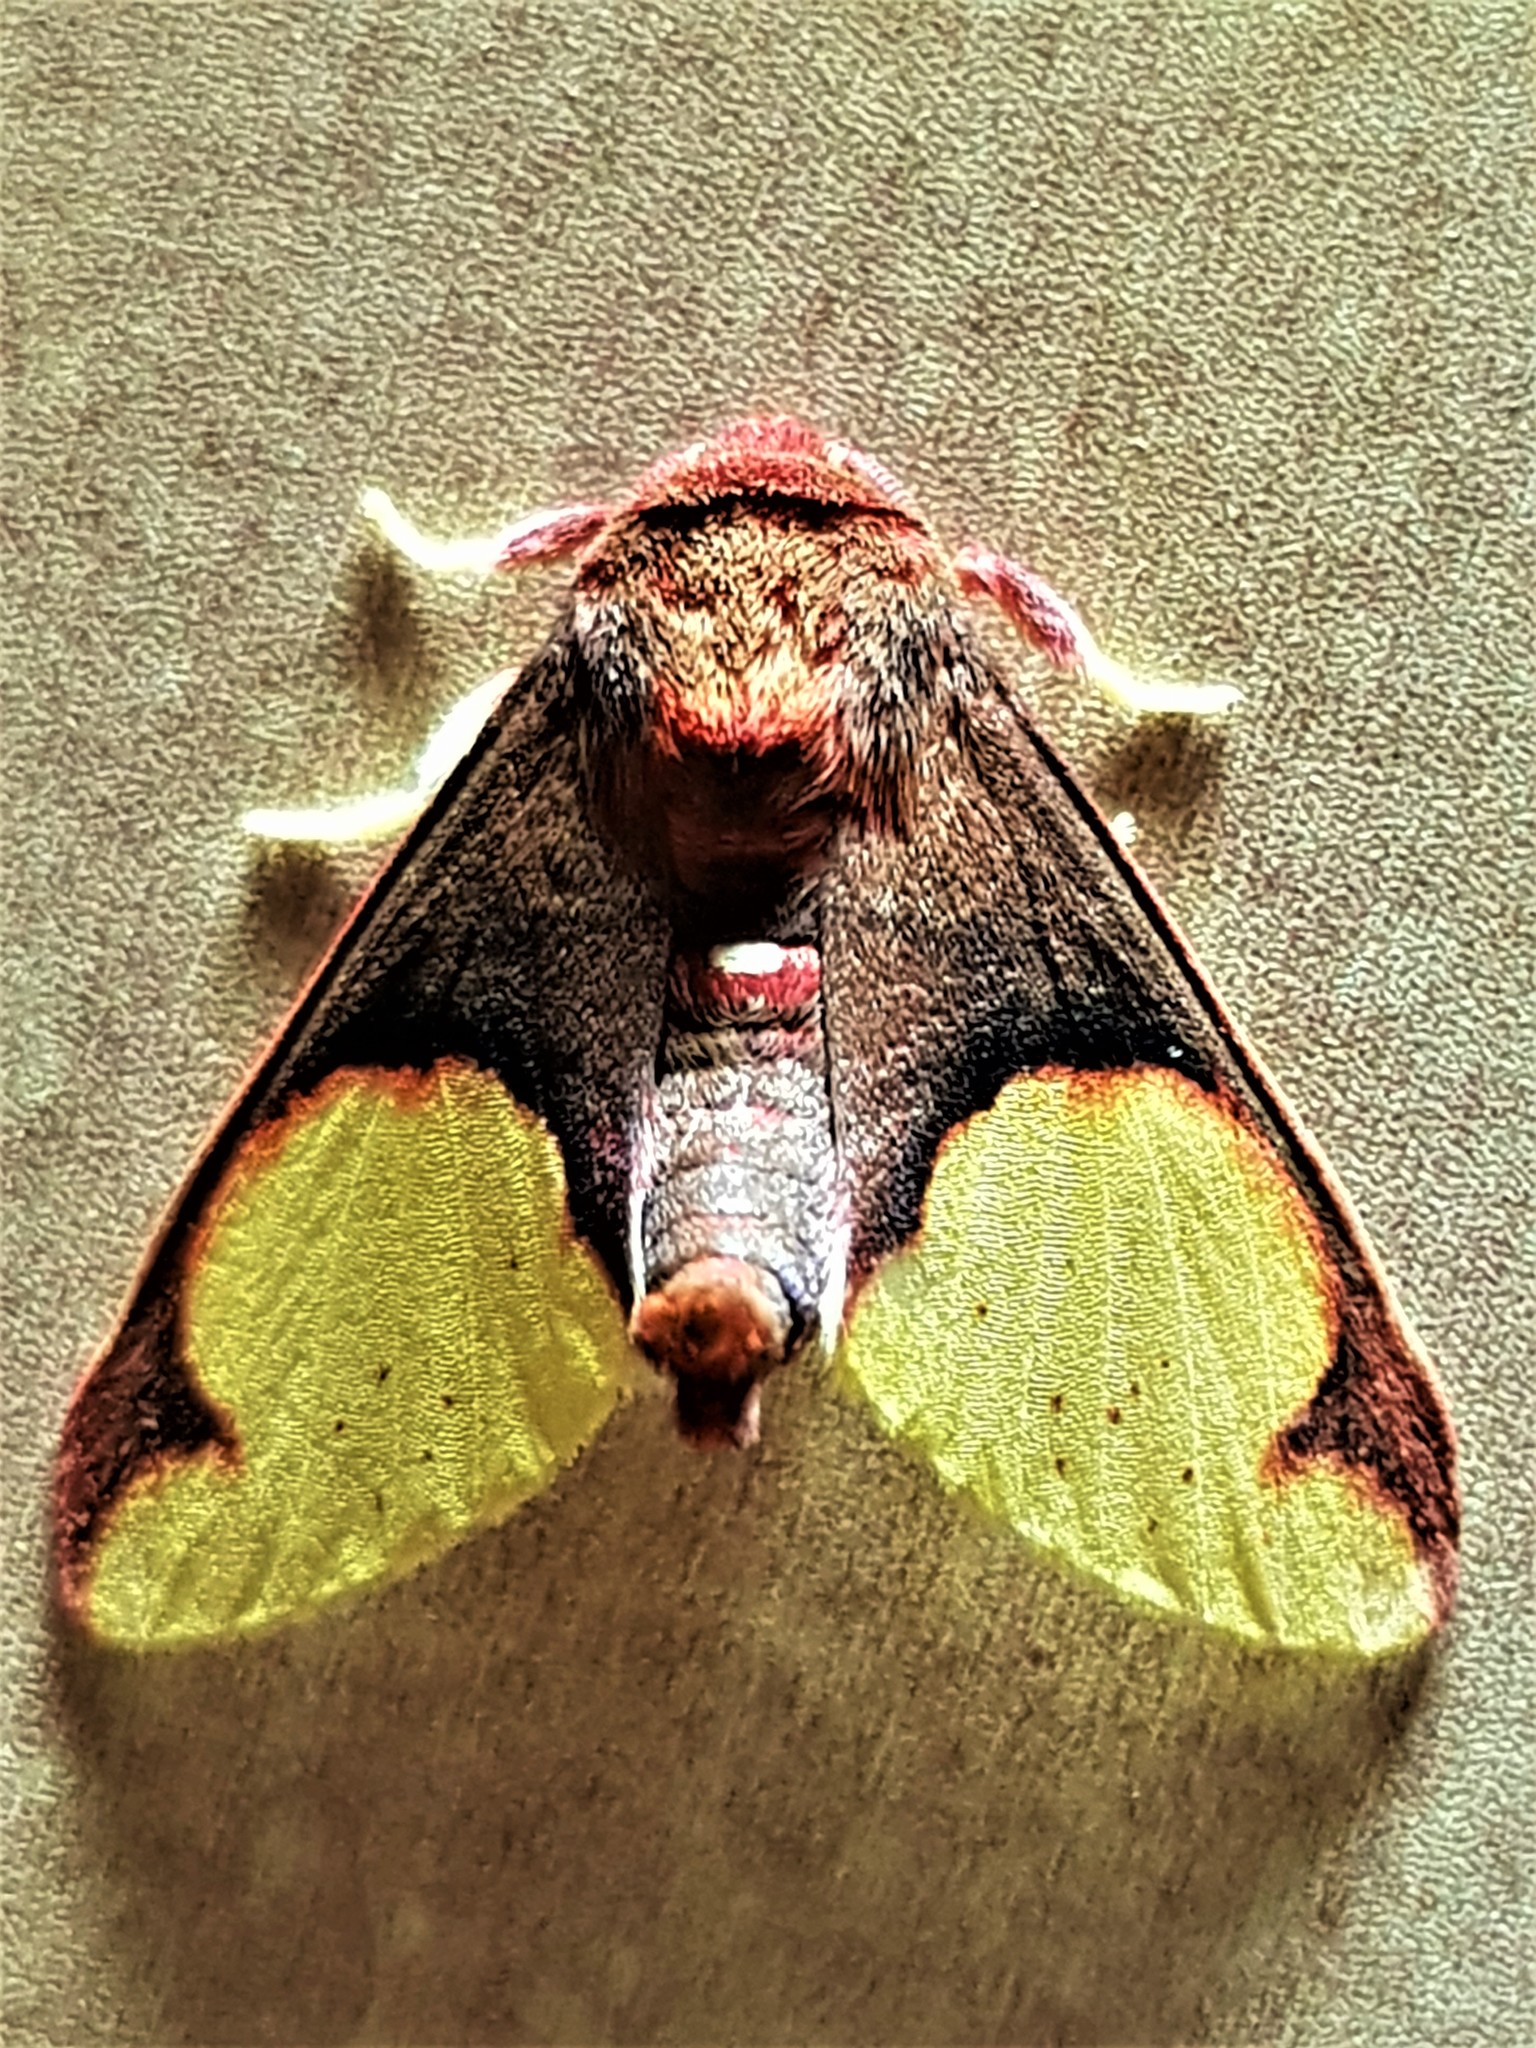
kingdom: Animalia
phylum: Arthropoda
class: Insecta
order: Lepidoptera
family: Erebidae
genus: Neonerita
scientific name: Neonerita incarnata
